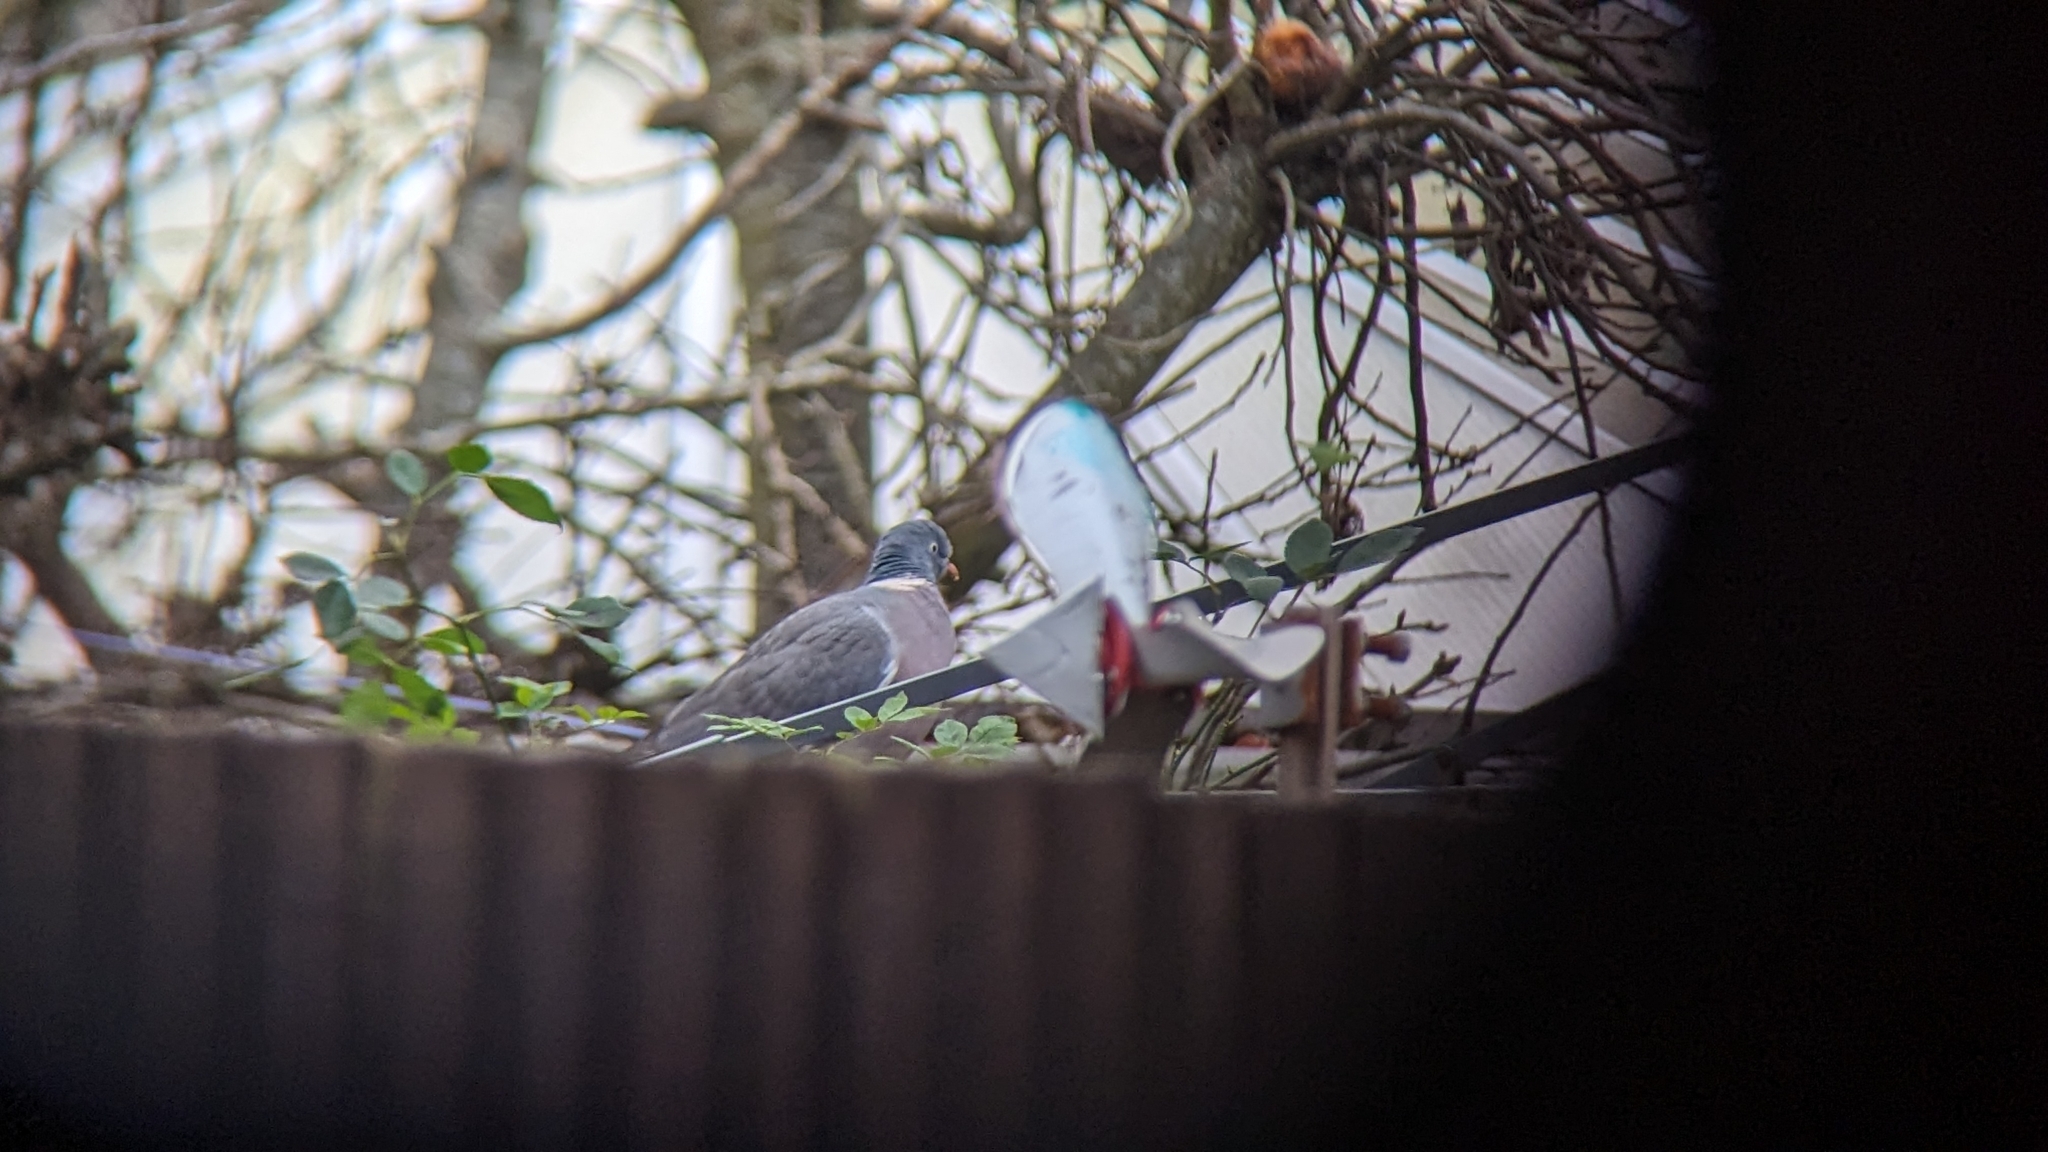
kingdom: Animalia
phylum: Chordata
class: Aves
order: Columbiformes
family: Columbidae
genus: Columba
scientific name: Columba palumbus
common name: Common wood pigeon
